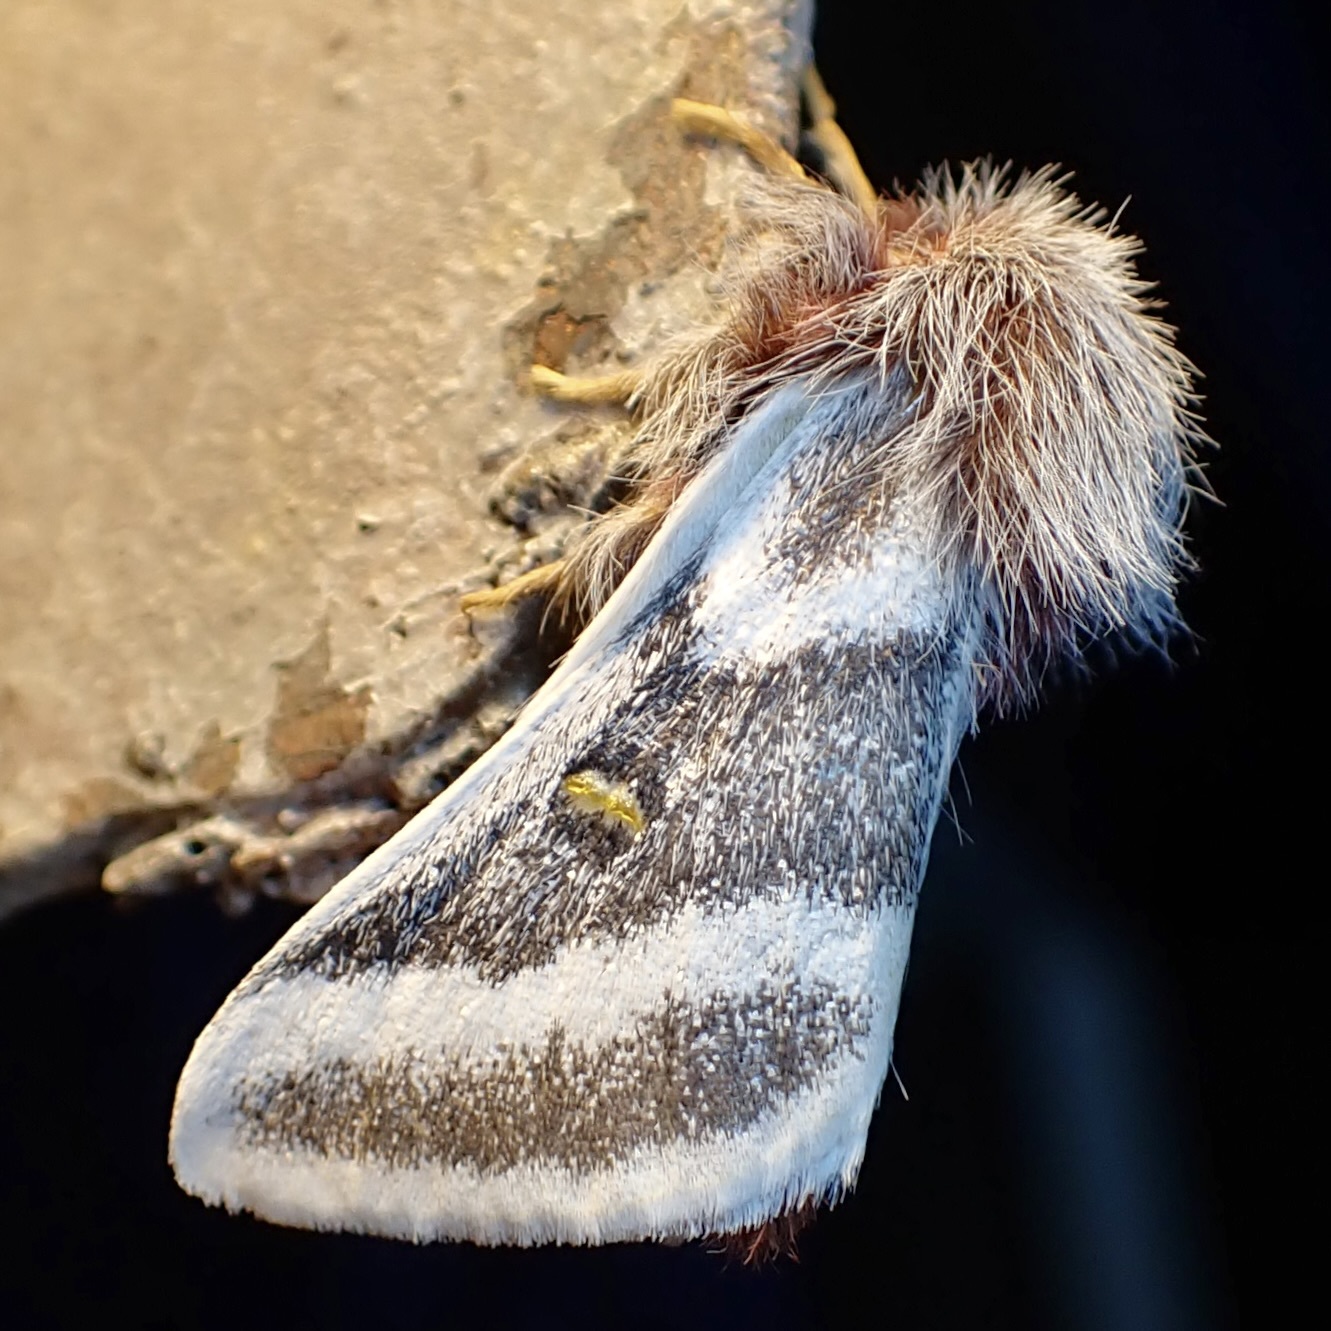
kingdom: Animalia
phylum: Arthropoda
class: Insecta
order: Lepidoptera
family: Saturniidae
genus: Hemileuca
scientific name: Hemileuca tricolor
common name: Tricolor buckmoth
